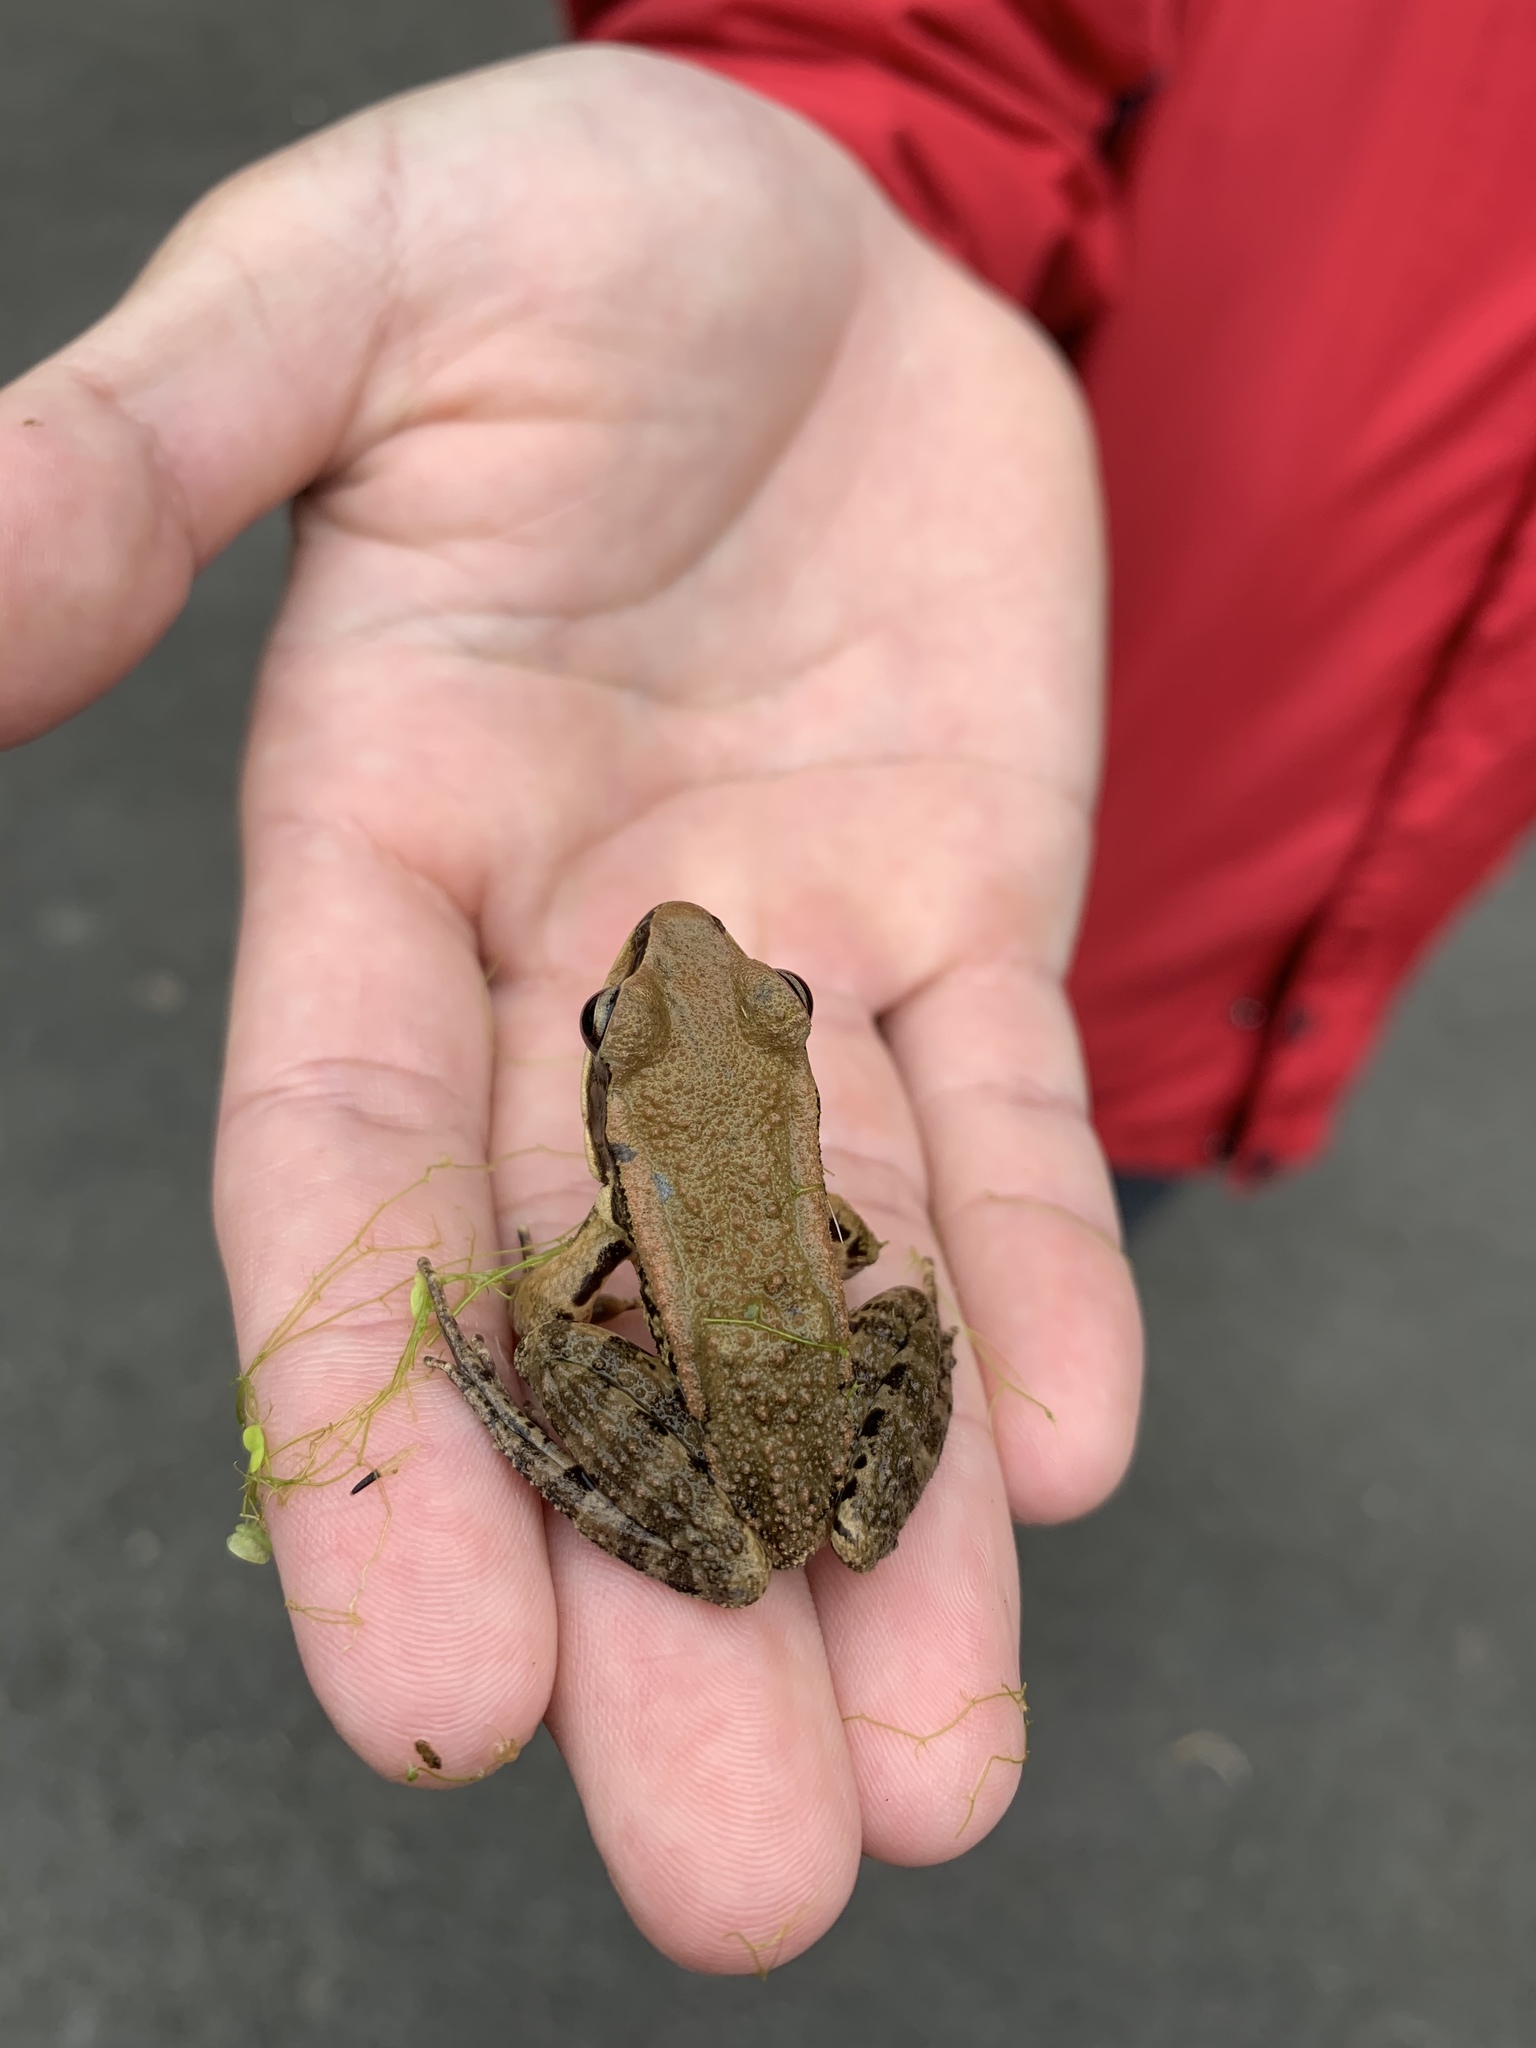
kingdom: Animalia
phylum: Chordata
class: Amphibia
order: Anura
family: Ranidae
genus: Hylarana
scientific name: Hylarana latouchii
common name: Broad-folded frog
